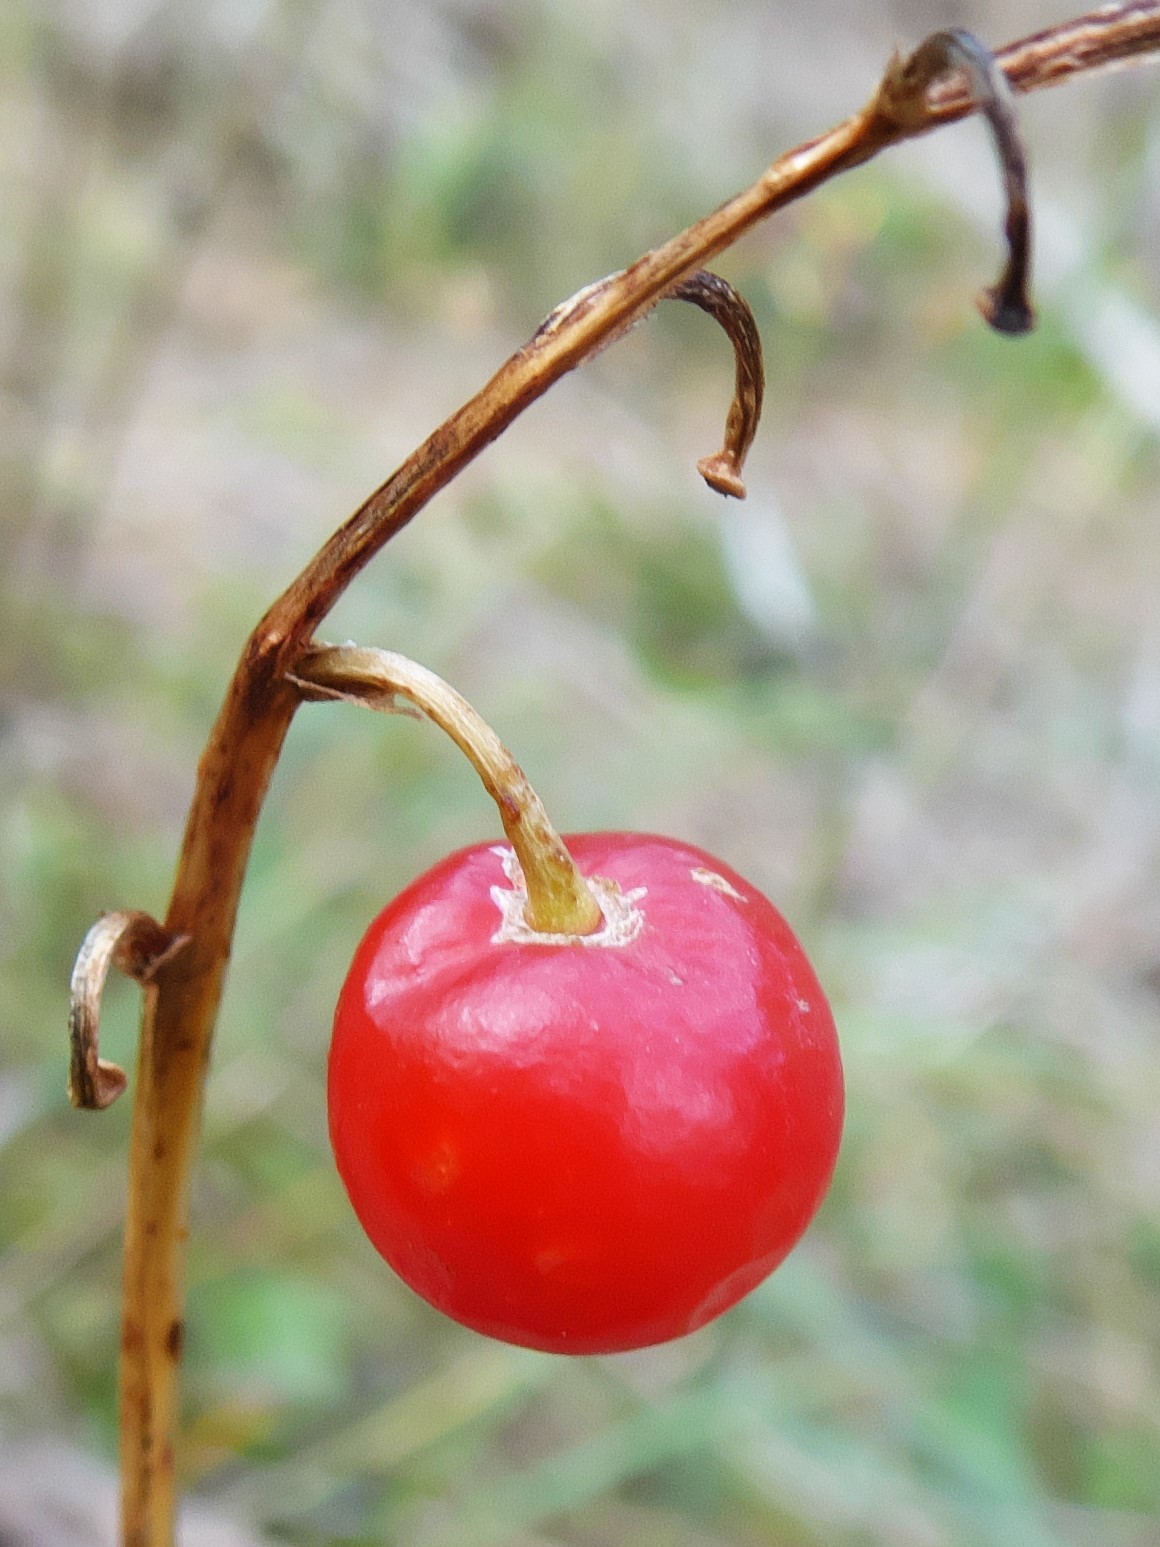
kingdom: Plantae
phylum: Tracheophyta
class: Liliopsida
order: Asparagales
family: Asparagaceae
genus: Convallaria
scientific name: Convallaria majalis
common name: Lily-of-the-valley
